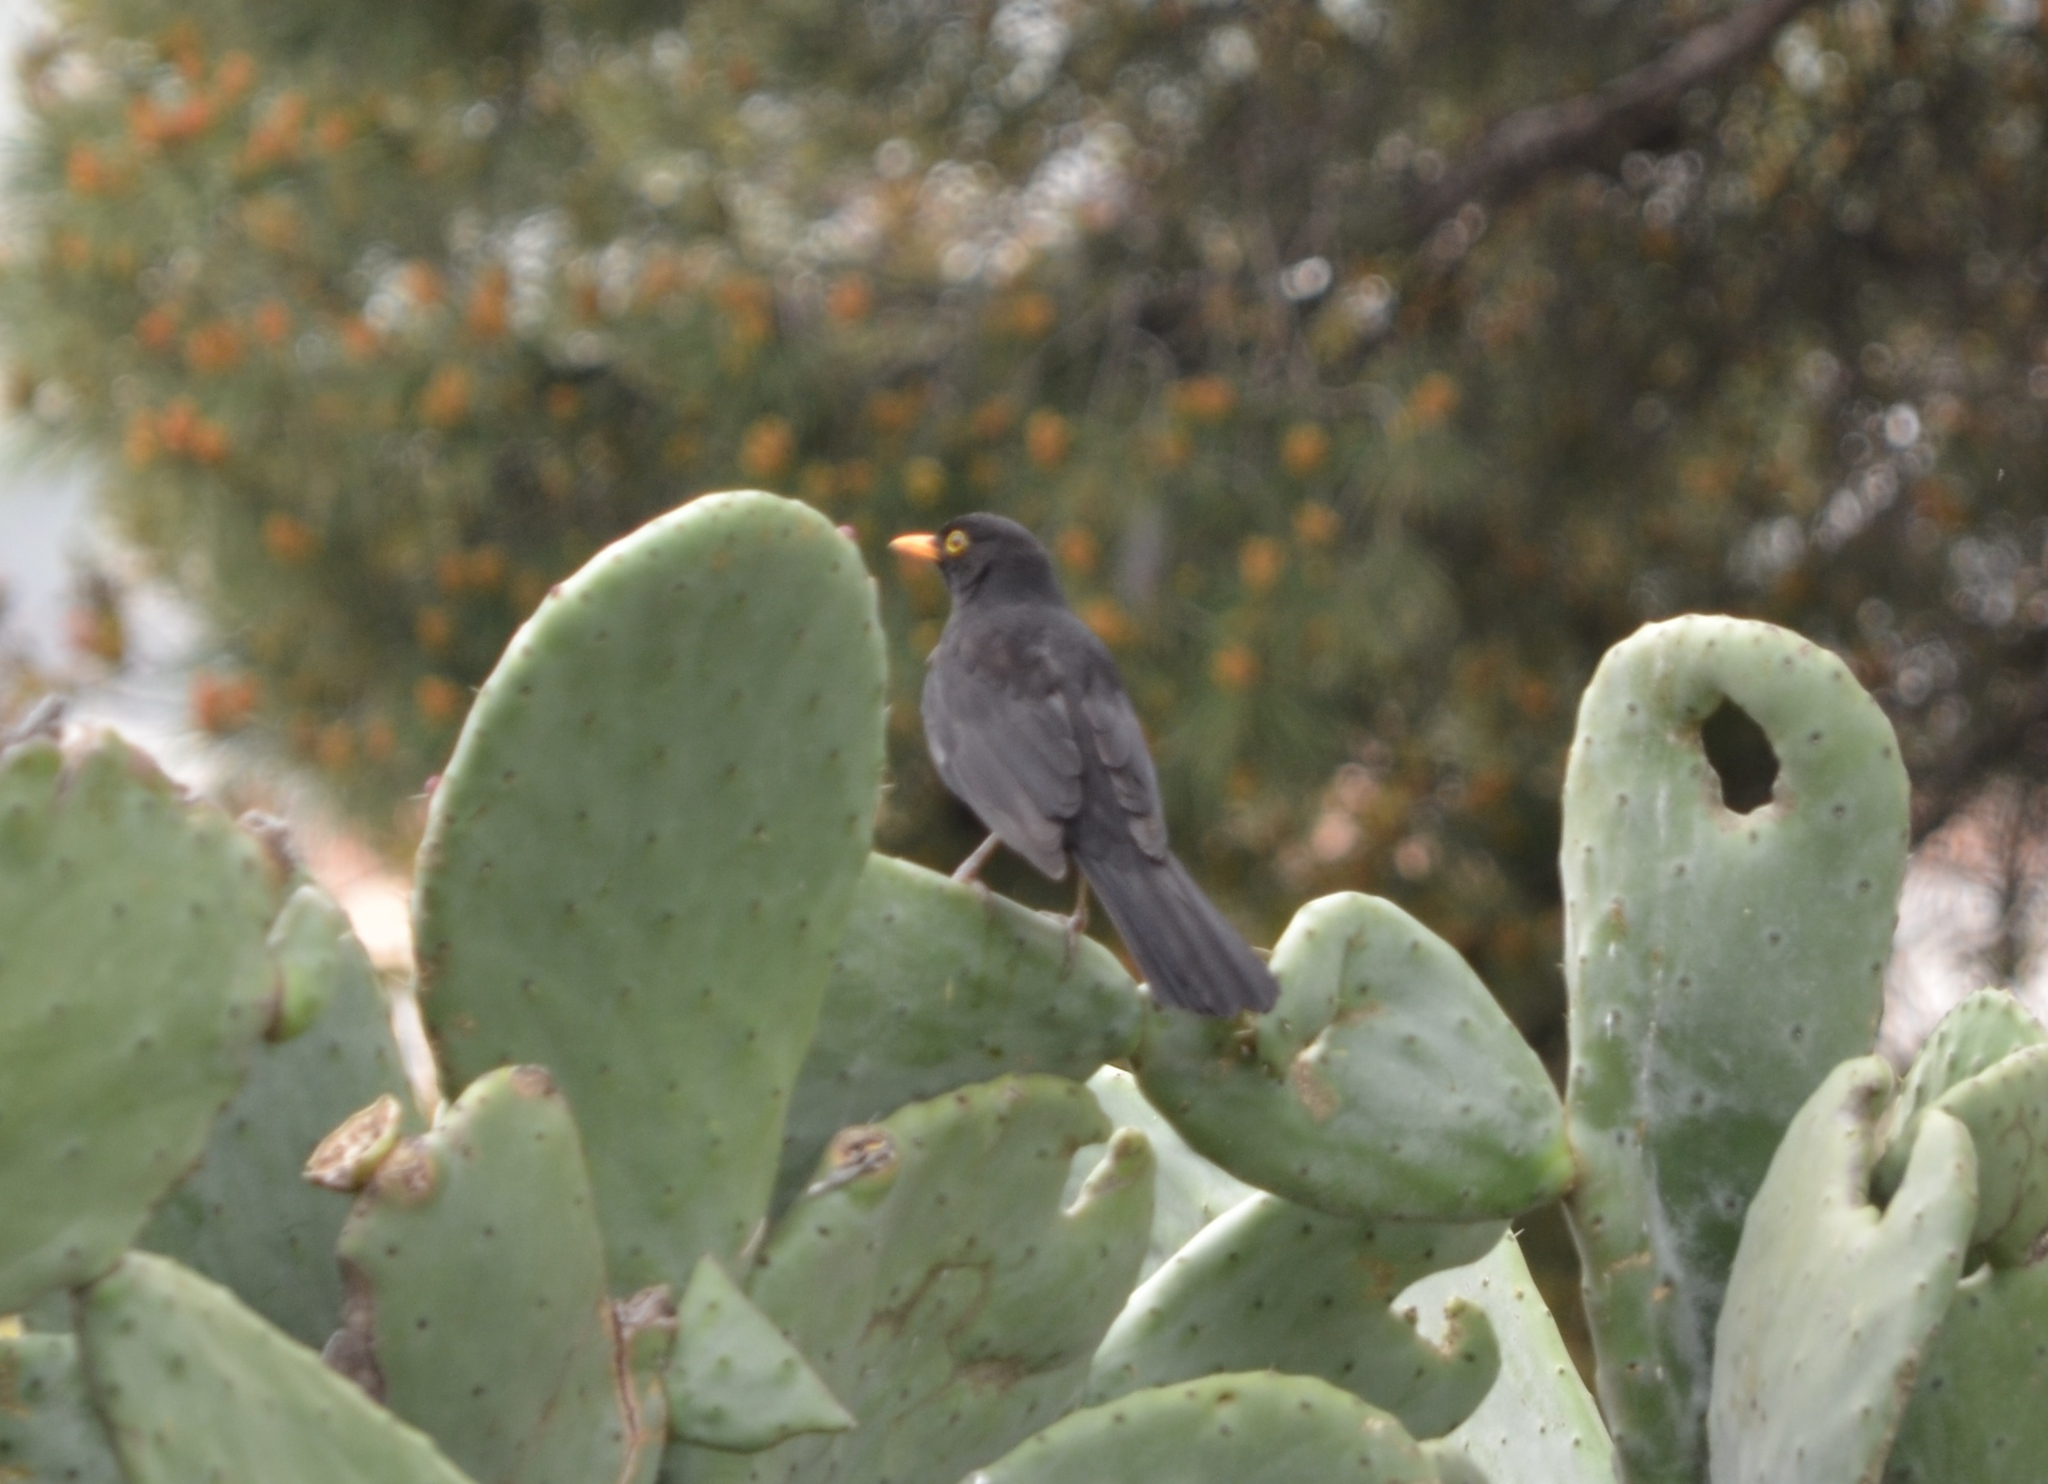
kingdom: Animalia
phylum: Chordata
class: Aves
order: Passeriformes
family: Turdidae
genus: Turdus
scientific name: Turdus merula
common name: Common blackbird
